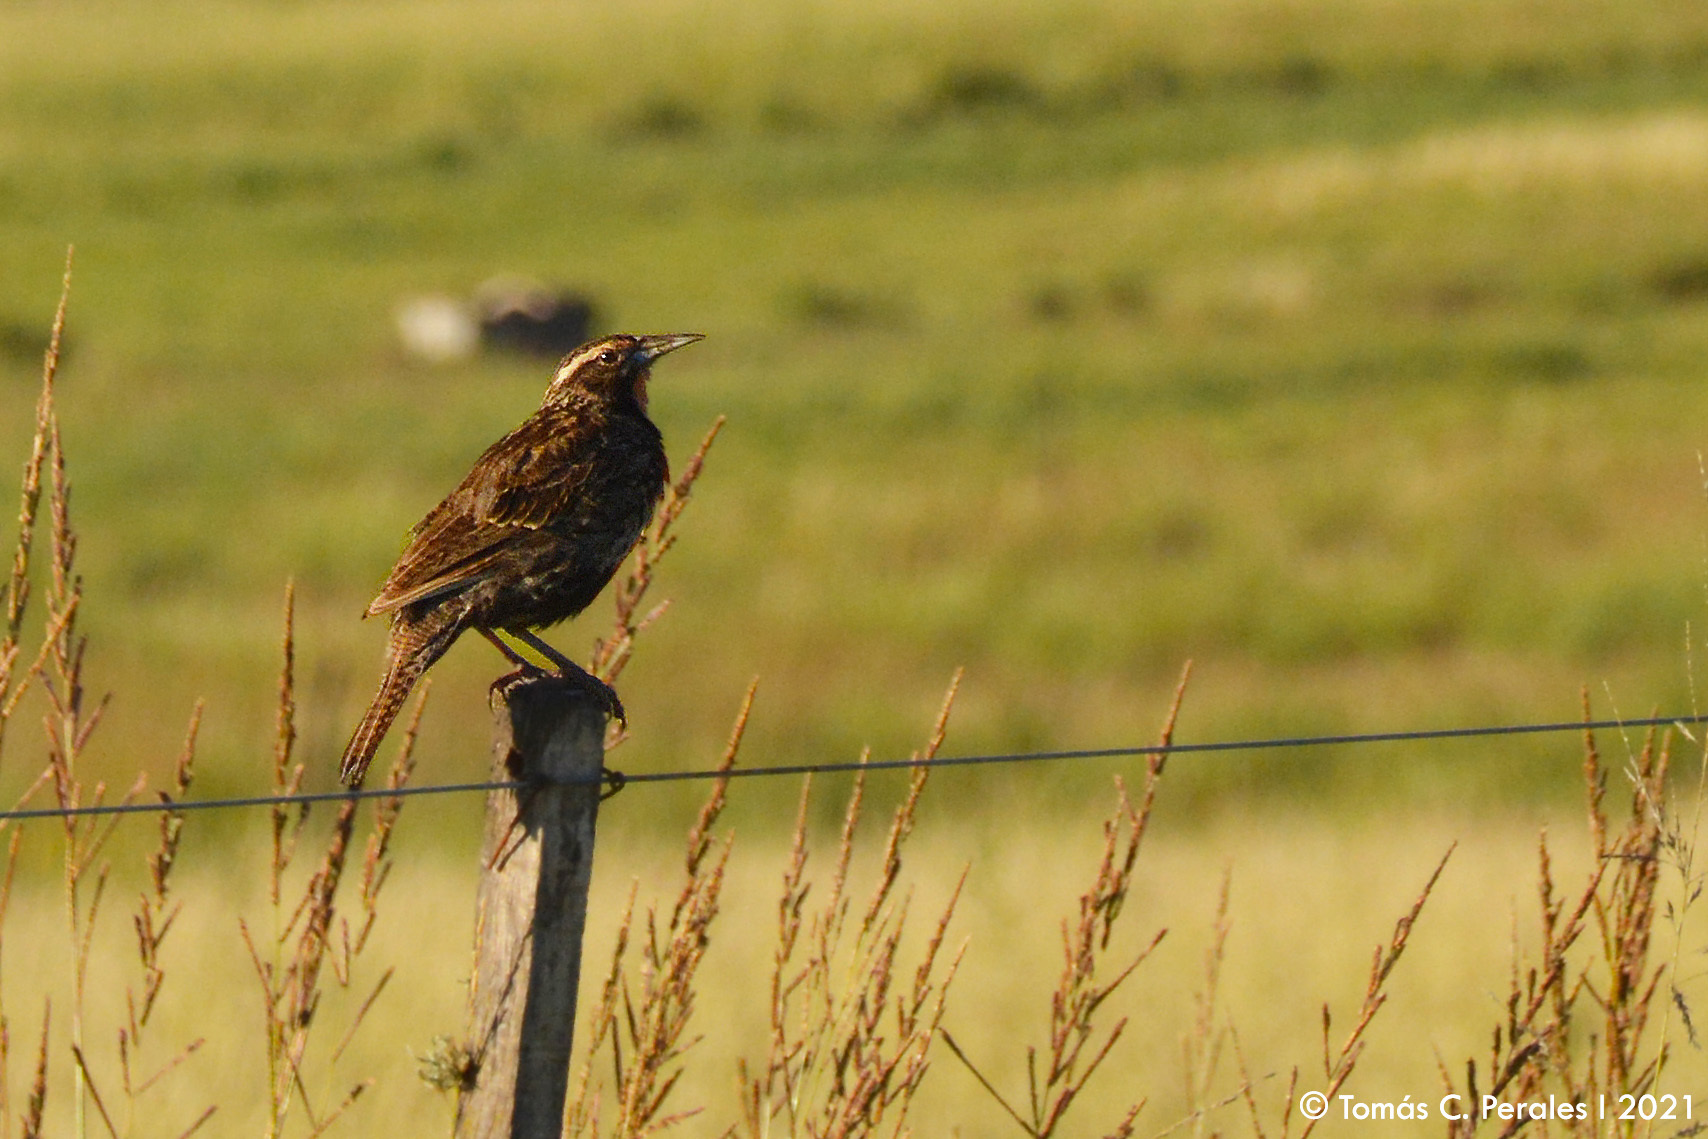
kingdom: Animalia
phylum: Chordata
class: Aves
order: Passeriformes
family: Icteridae
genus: Sturnella
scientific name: Sturnella loyca
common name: Long-tailed meadowlark
